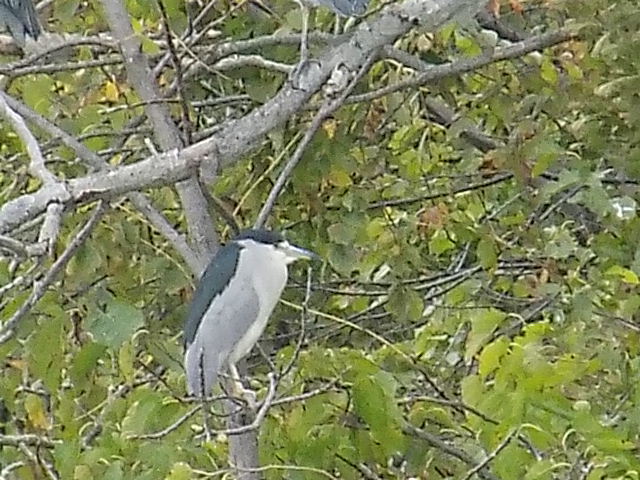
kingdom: Animalia
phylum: Chordata
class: Aves
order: Pelecaniformes
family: Ardeidae
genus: Nycticorax
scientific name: Nycticorax nycticorax
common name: Black-crowned night heron
